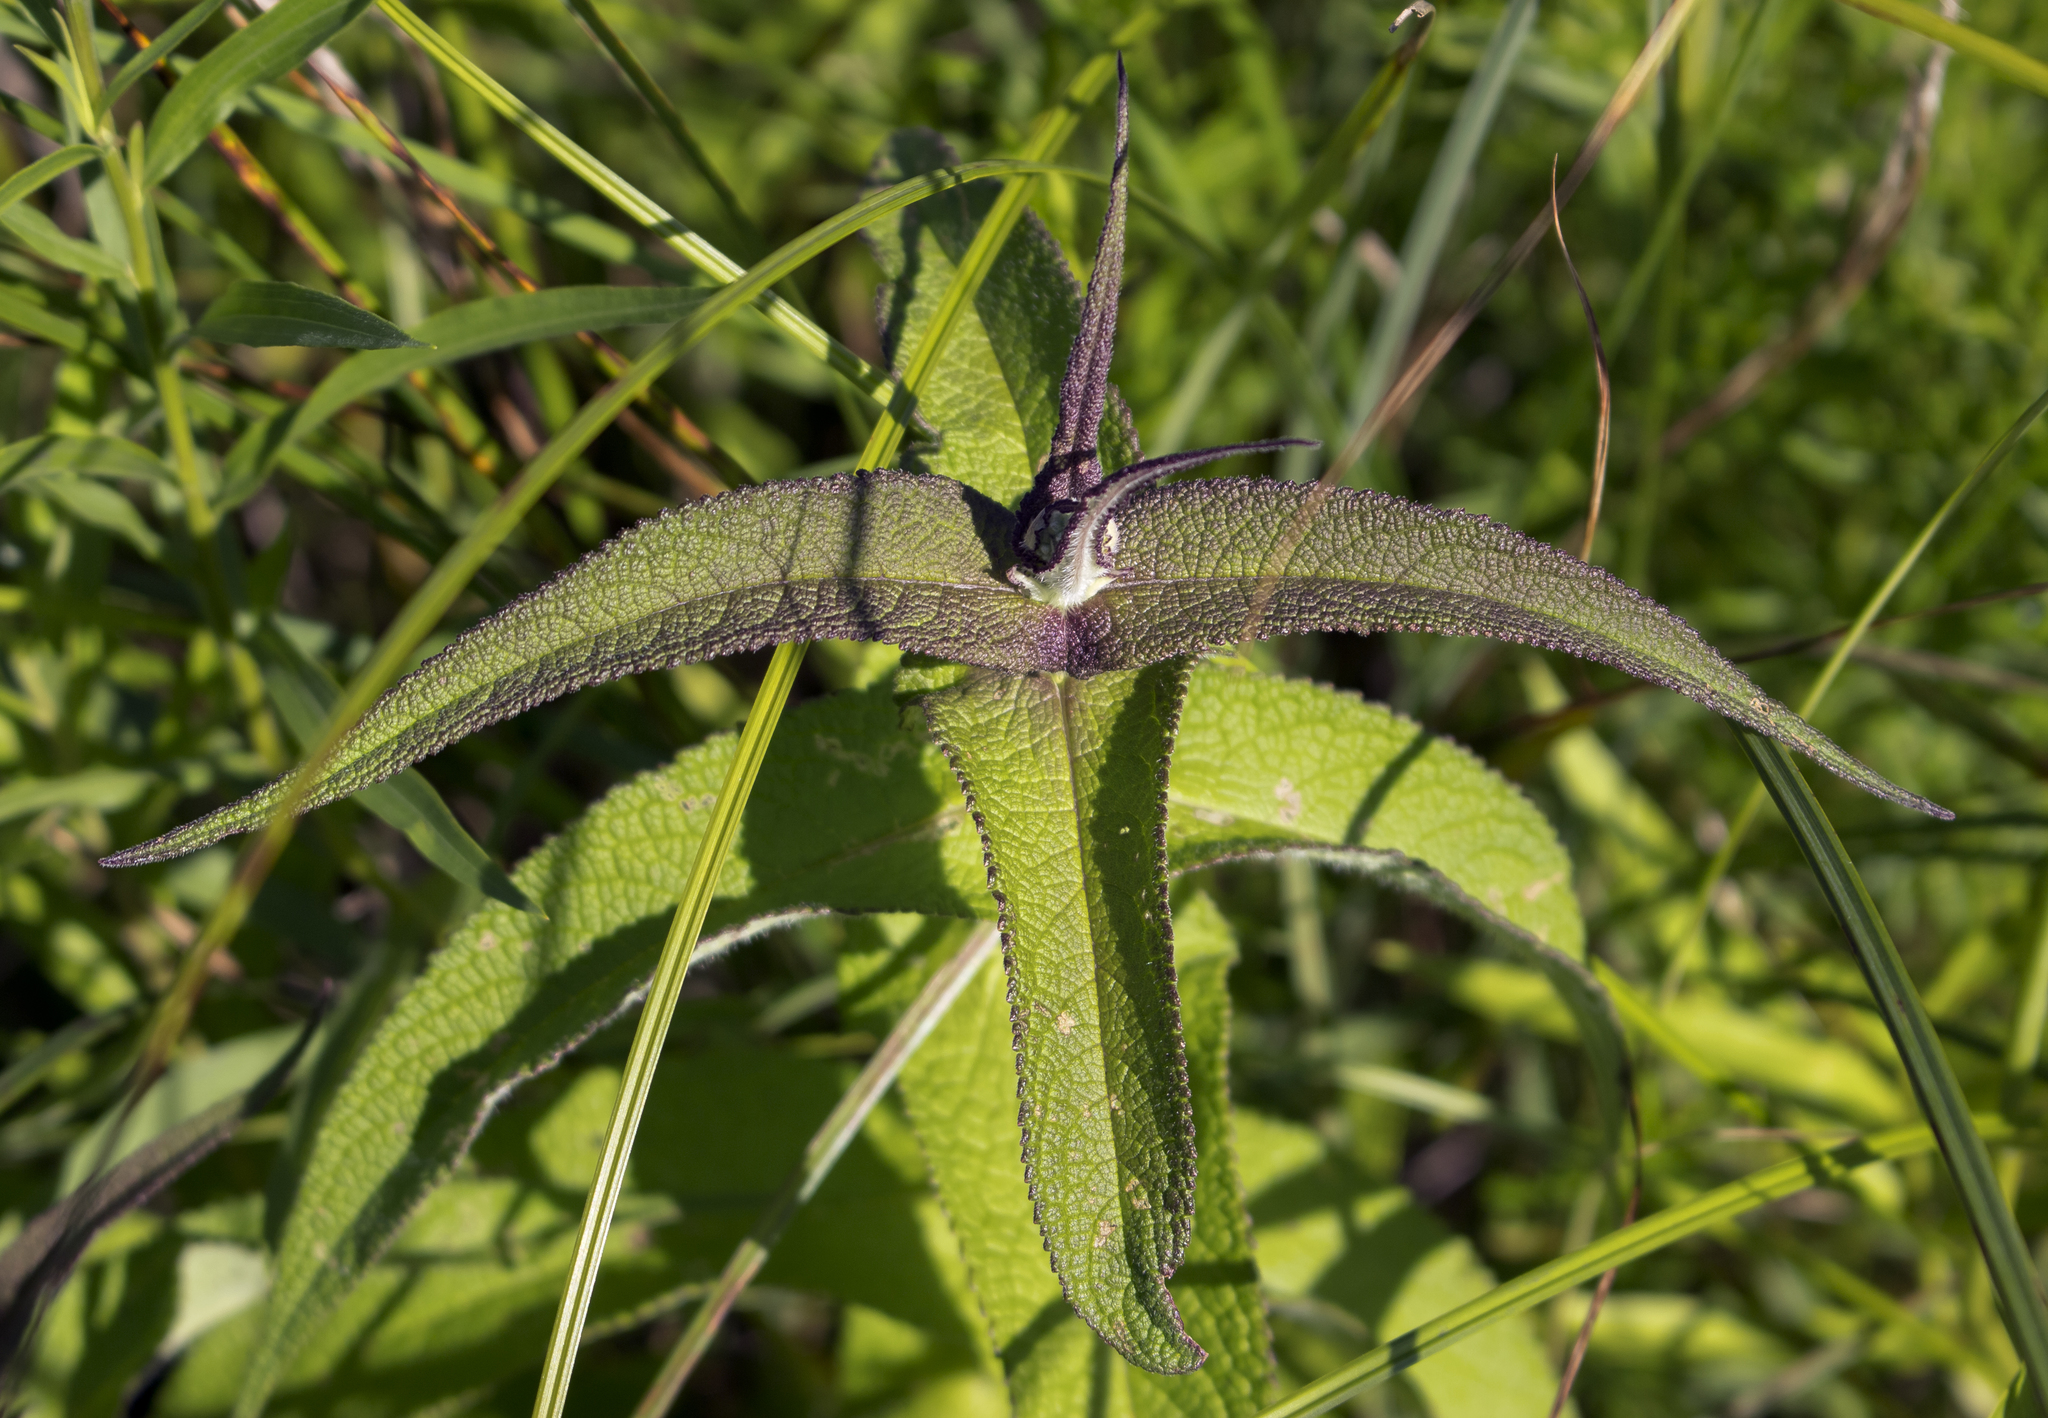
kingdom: Plantae
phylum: Tracheophyta
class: Magnoliopsida
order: Asterales
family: Asteraceae
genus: Eupatorium
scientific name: Eupatorium perfoliatum
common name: Boneset
